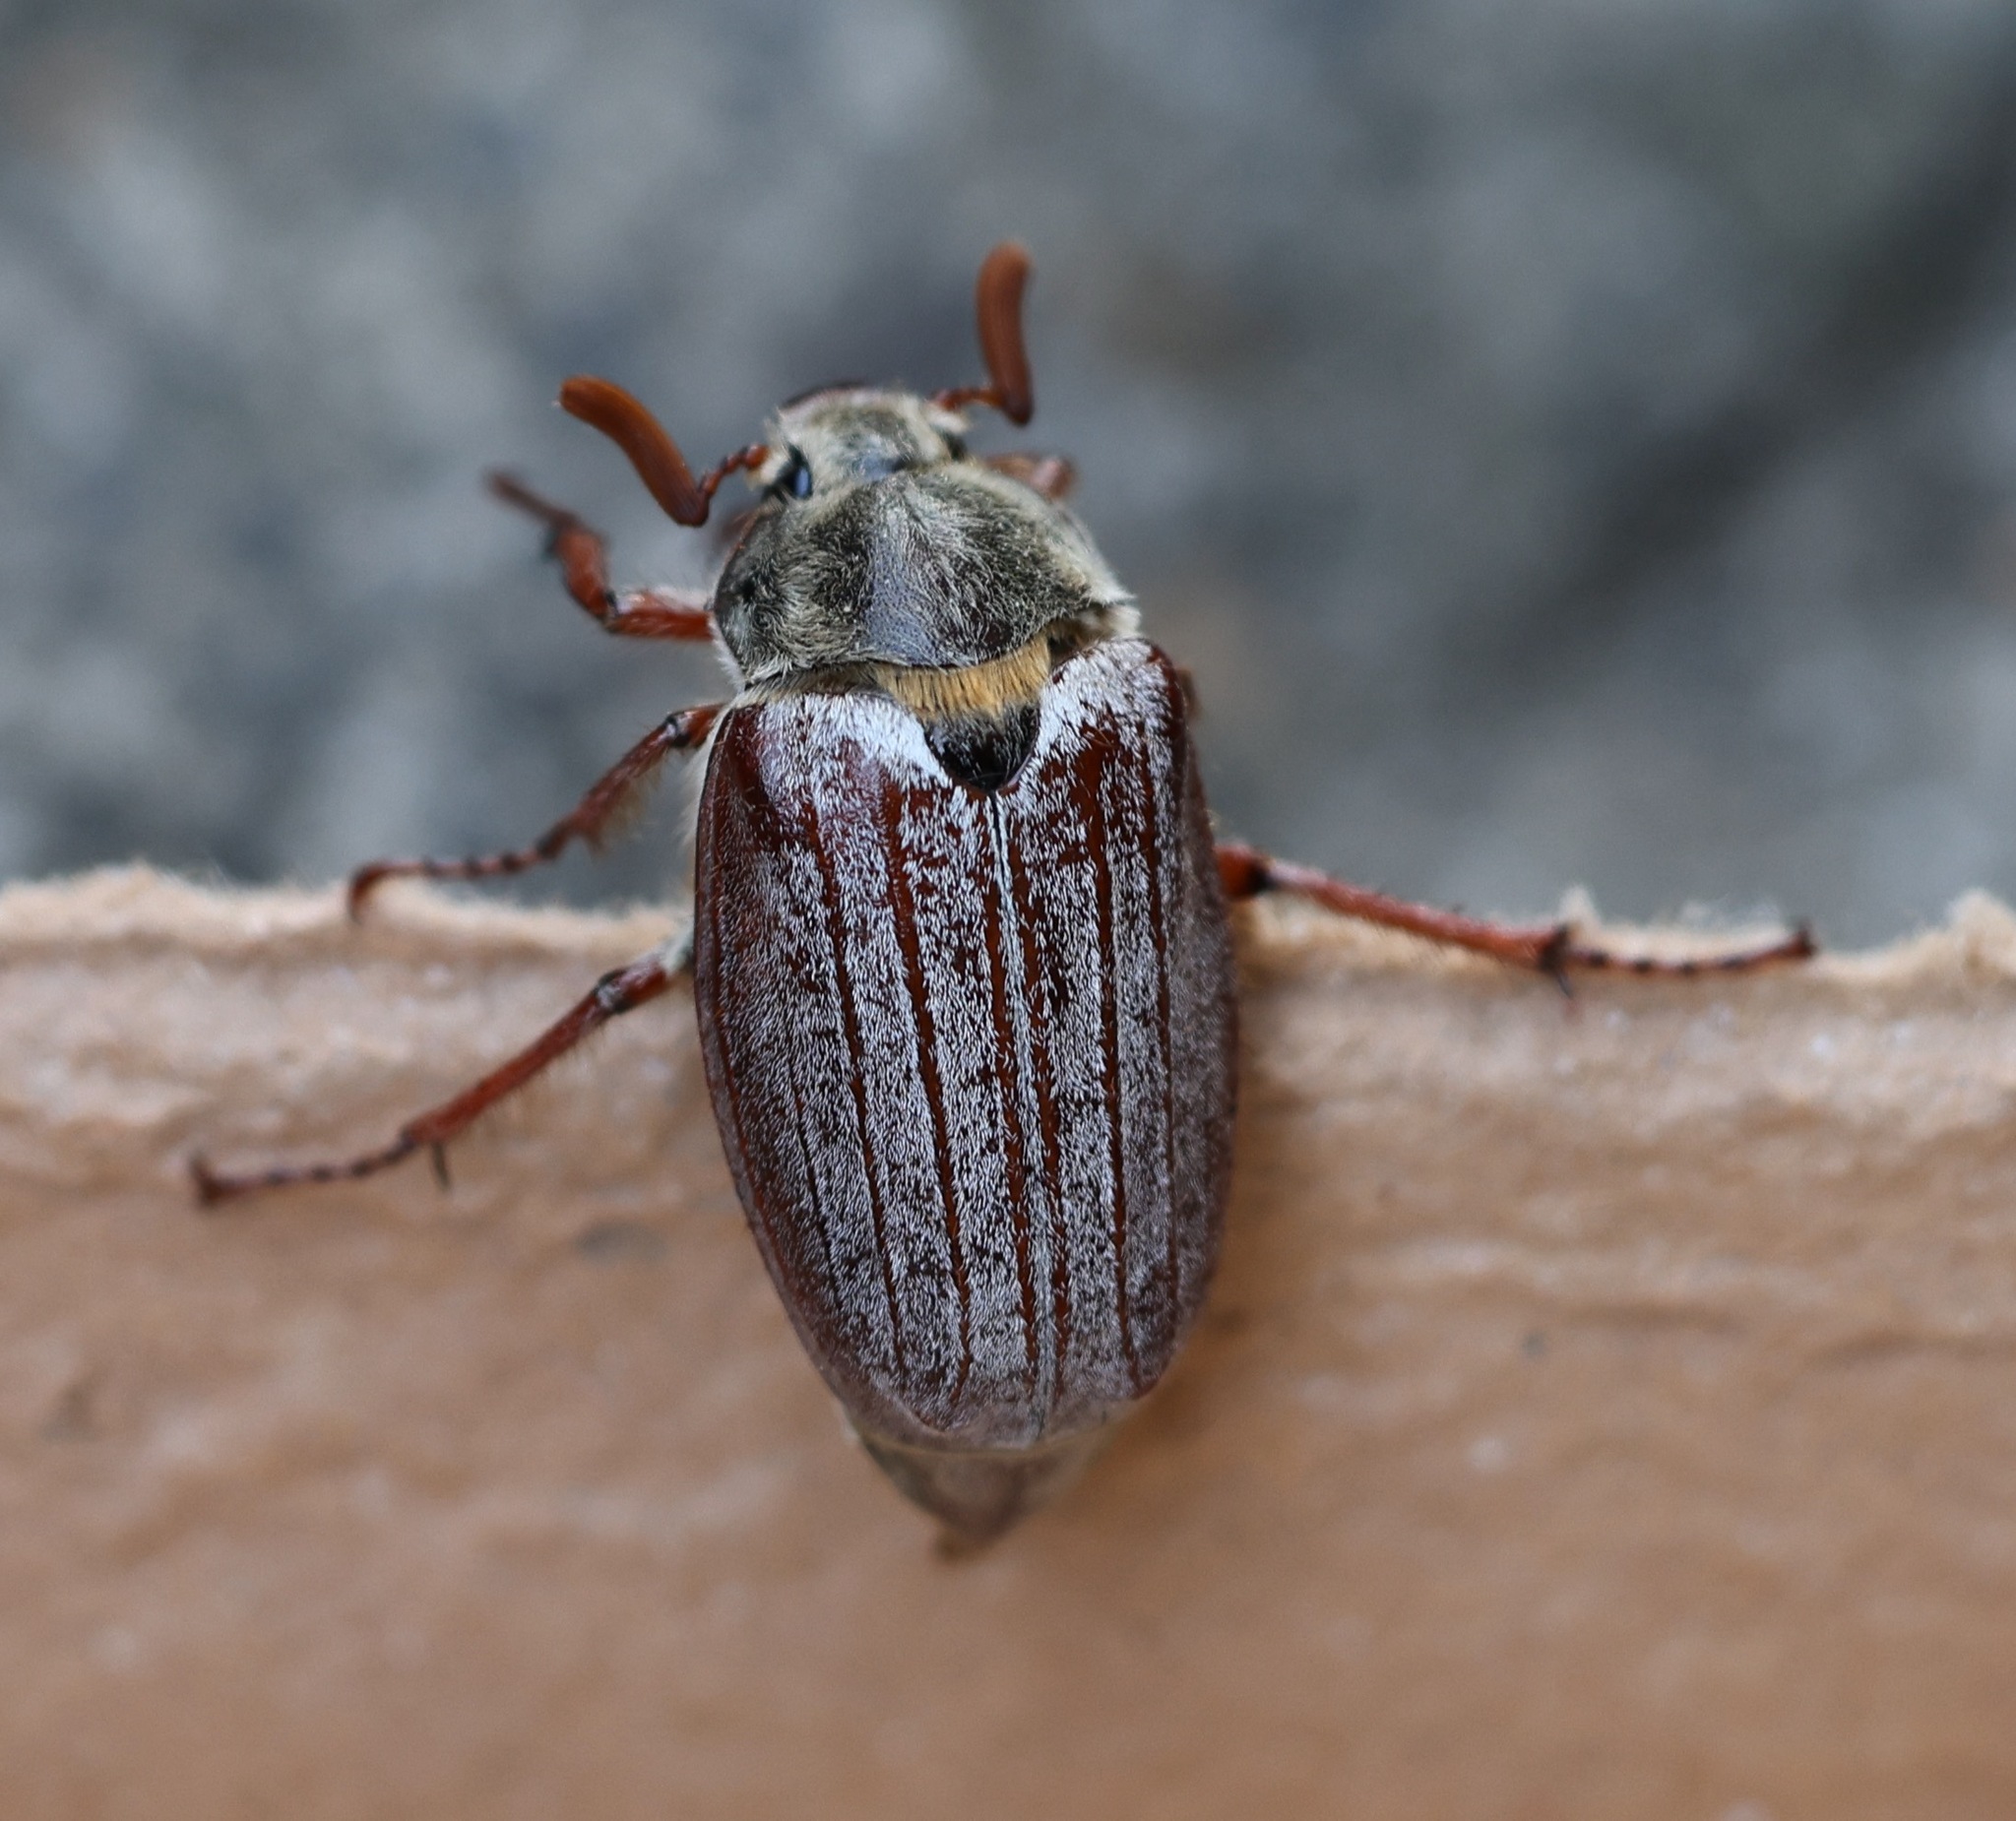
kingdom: Animalia
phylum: Arthropoda
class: Insecta
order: Coleoptera
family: Scarabaeidae
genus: Melolontha
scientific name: Melolontha melolontha
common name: Cockchafer maybeetle
